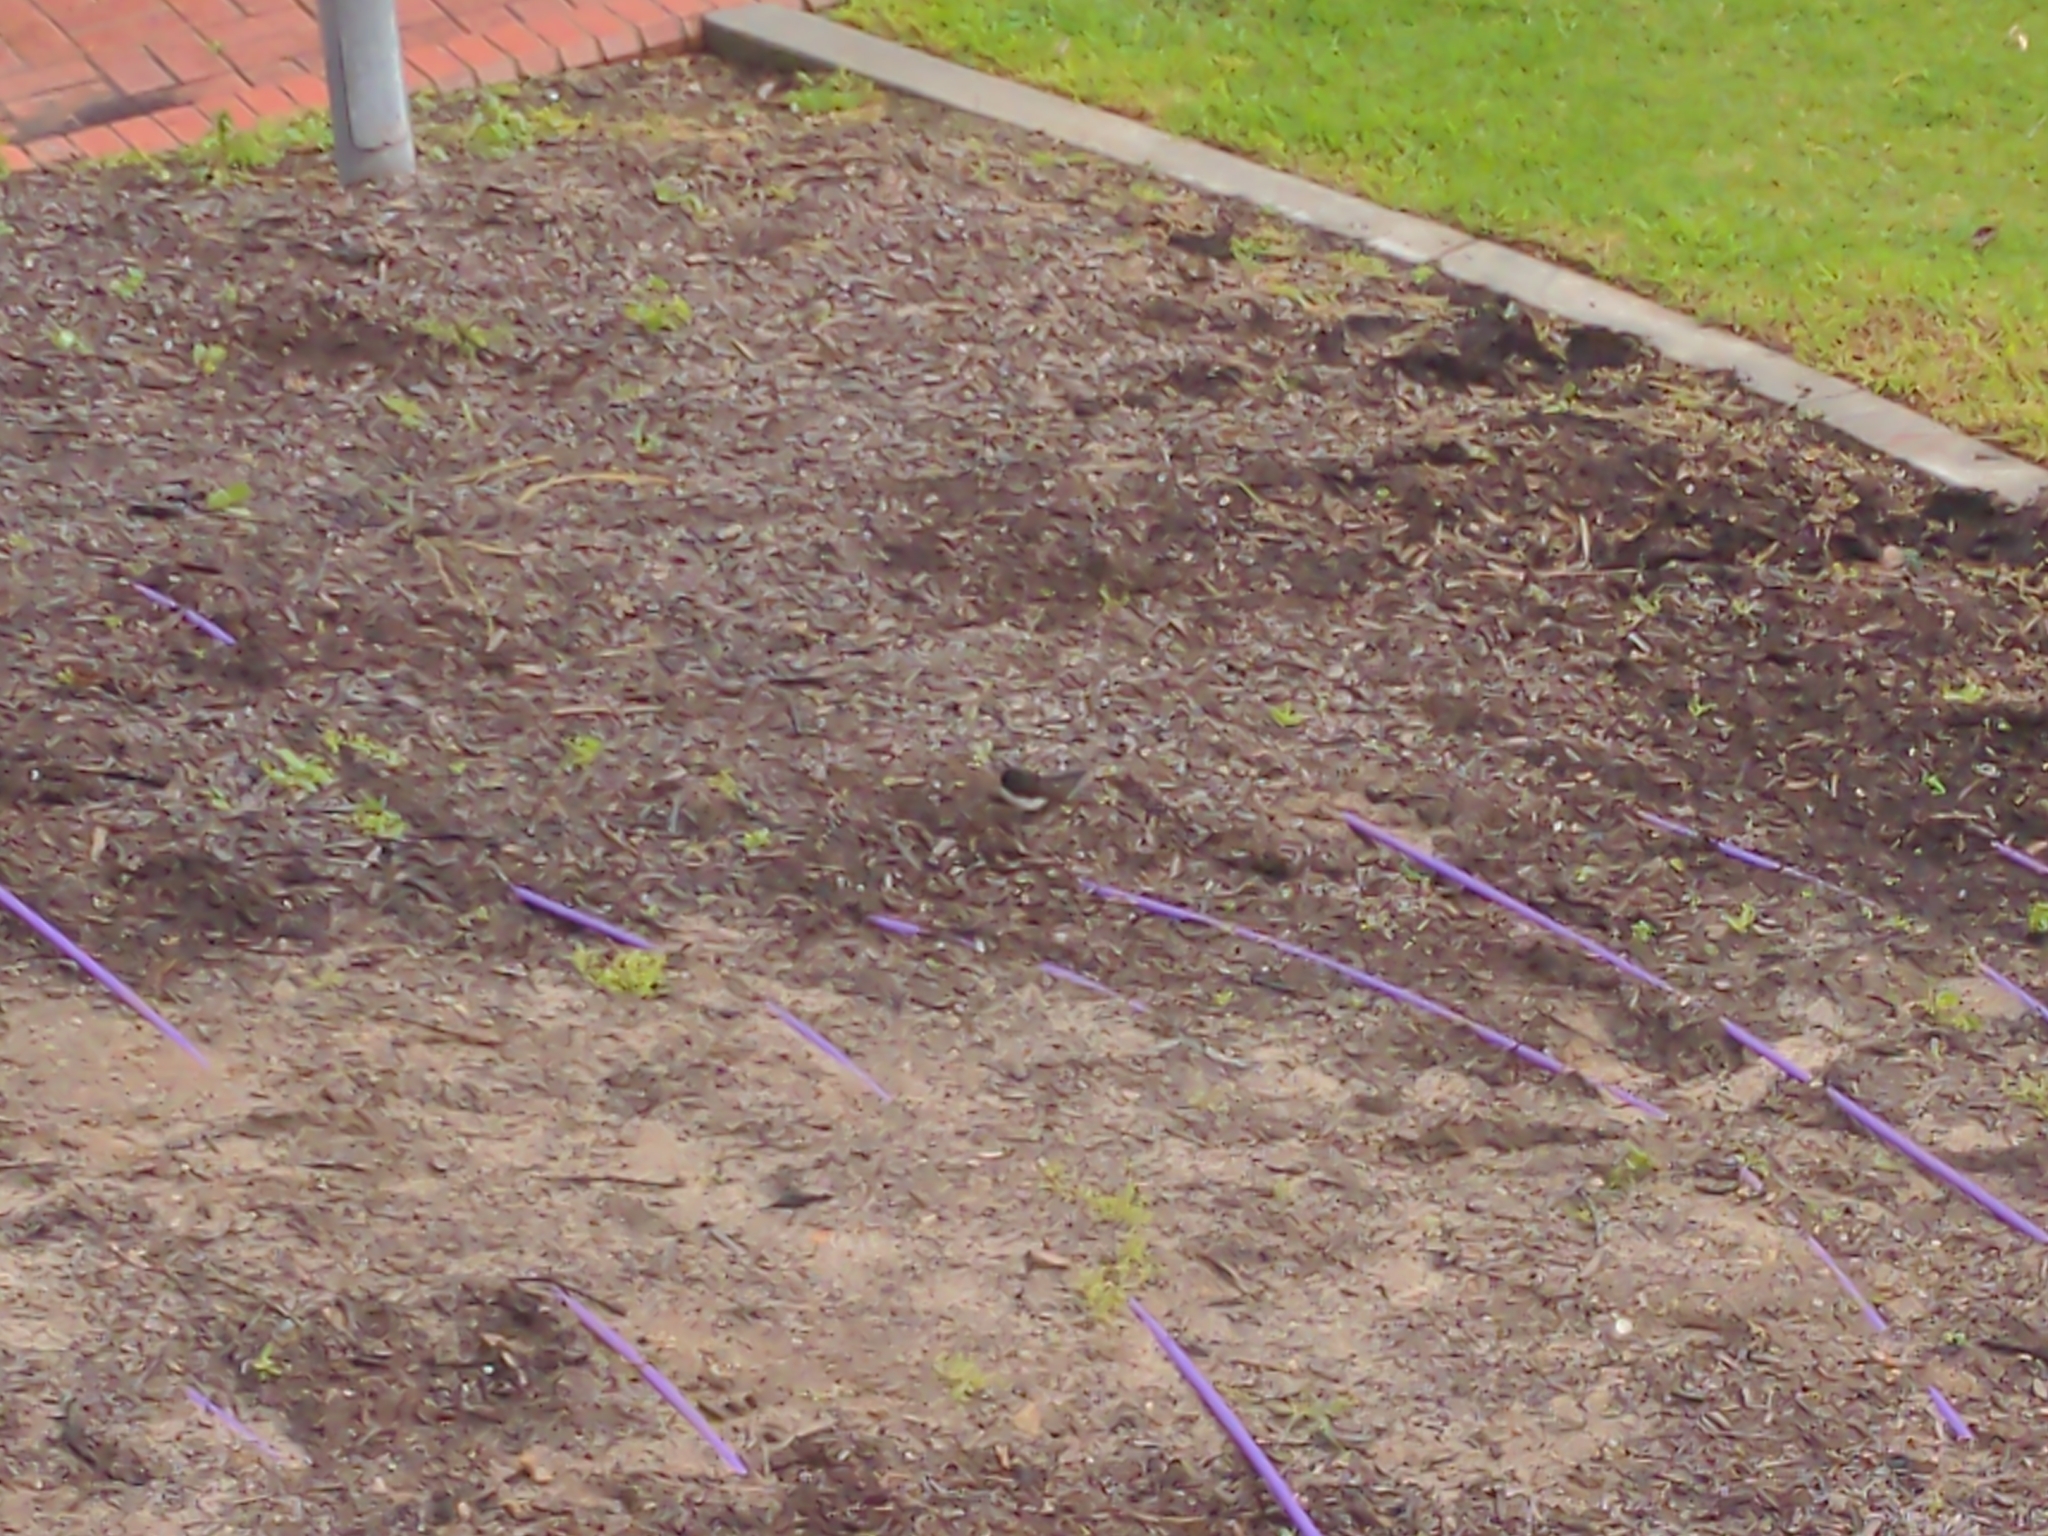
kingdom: Animalia
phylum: Chordata
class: Aves
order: Passeriformes
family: Rhipiduridae
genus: Rhipidura
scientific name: Rhipidura leucophrys
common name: Willie wagtail
